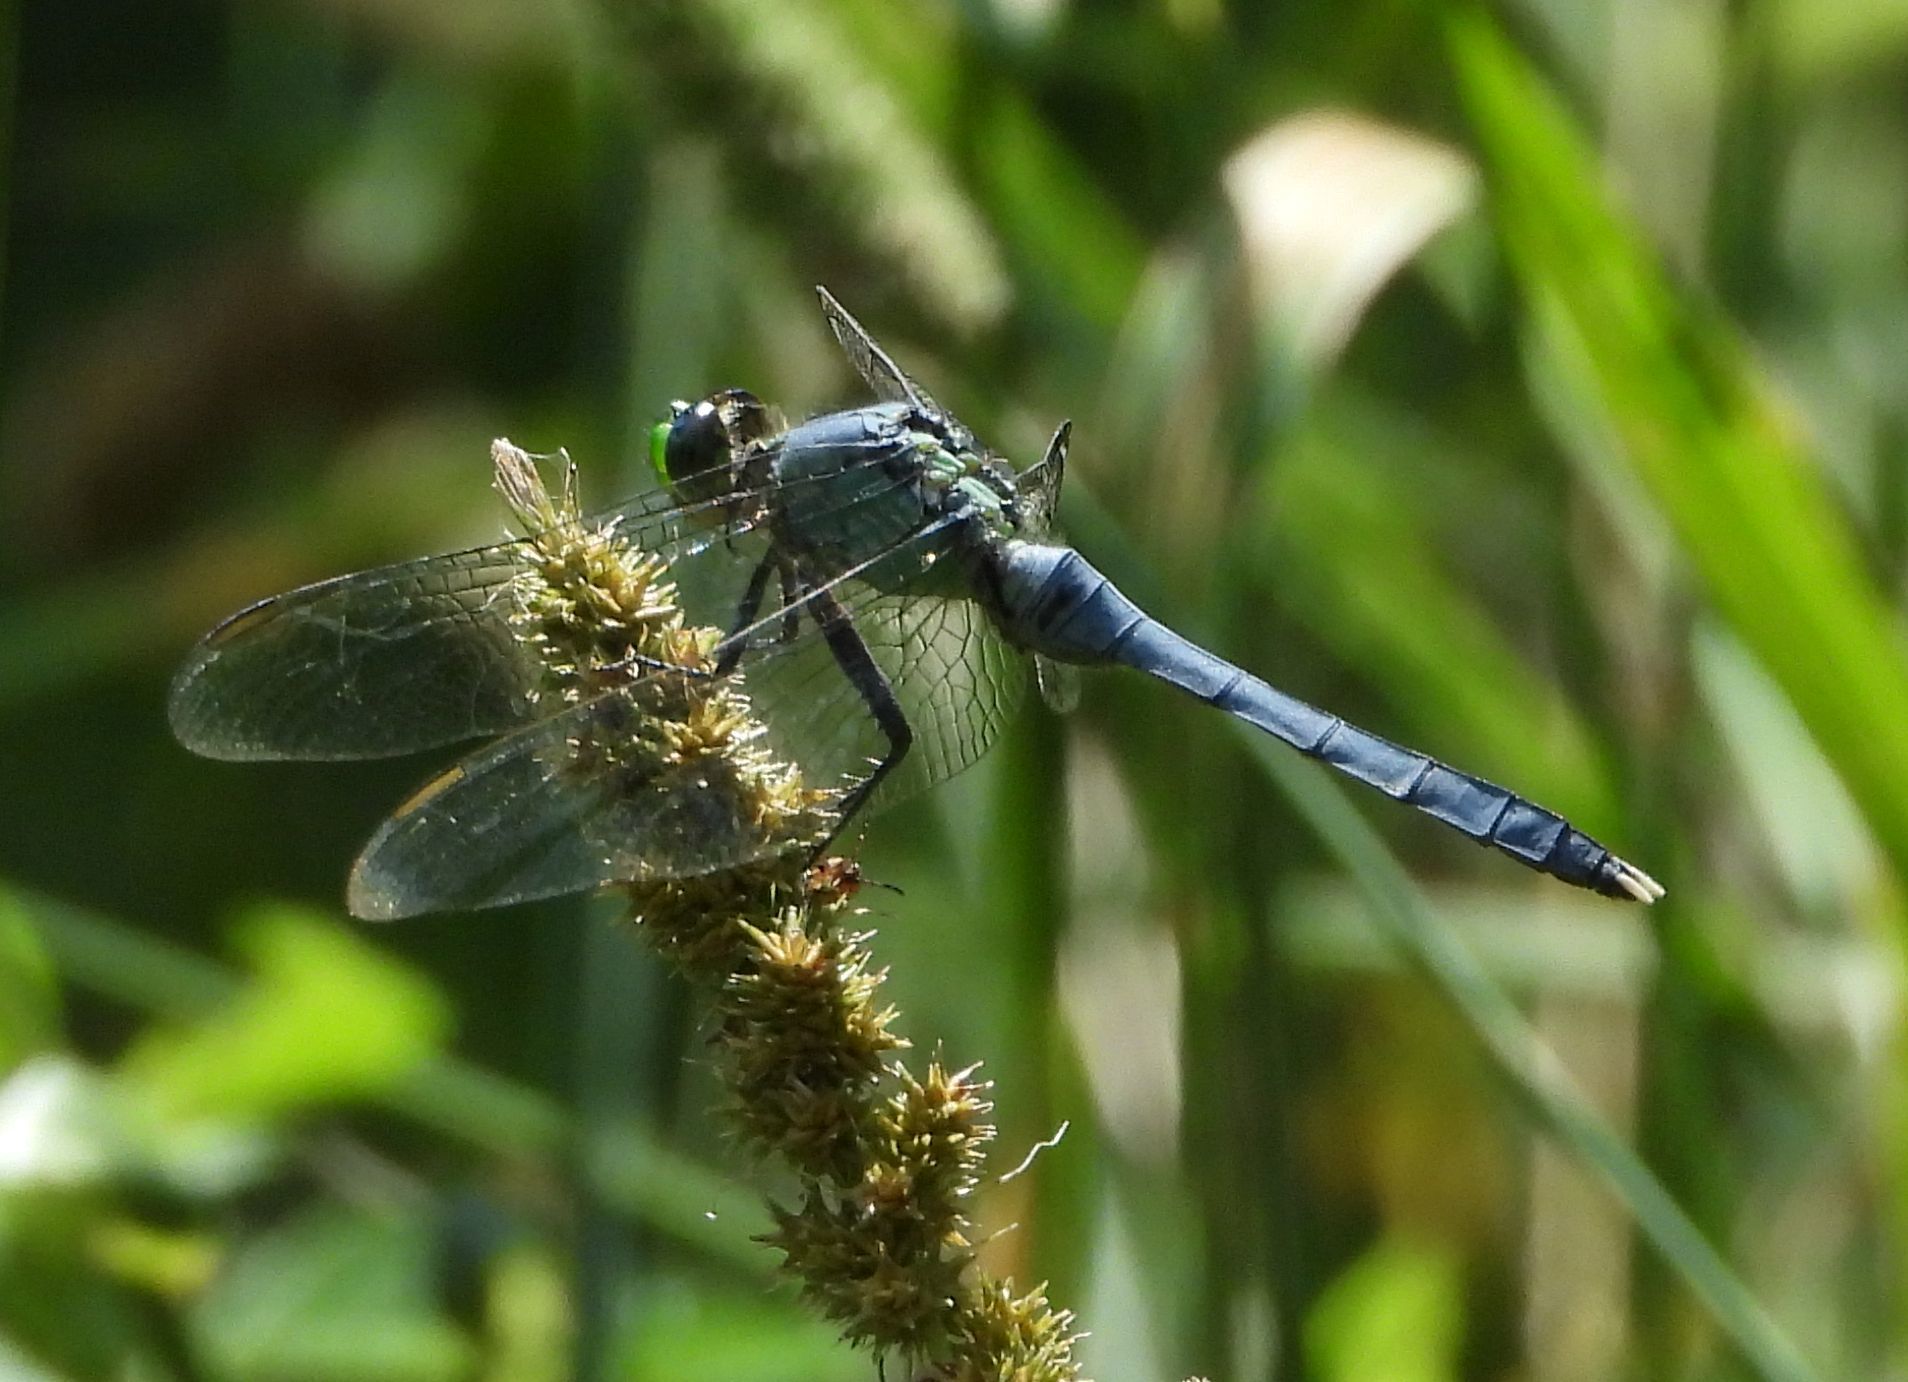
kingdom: Animalia
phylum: Arthropoda
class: Insecta
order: Odonata
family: Libellulidae
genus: Erythemis
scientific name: Erythemis simplicicollis
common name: Eastern pondhawk
